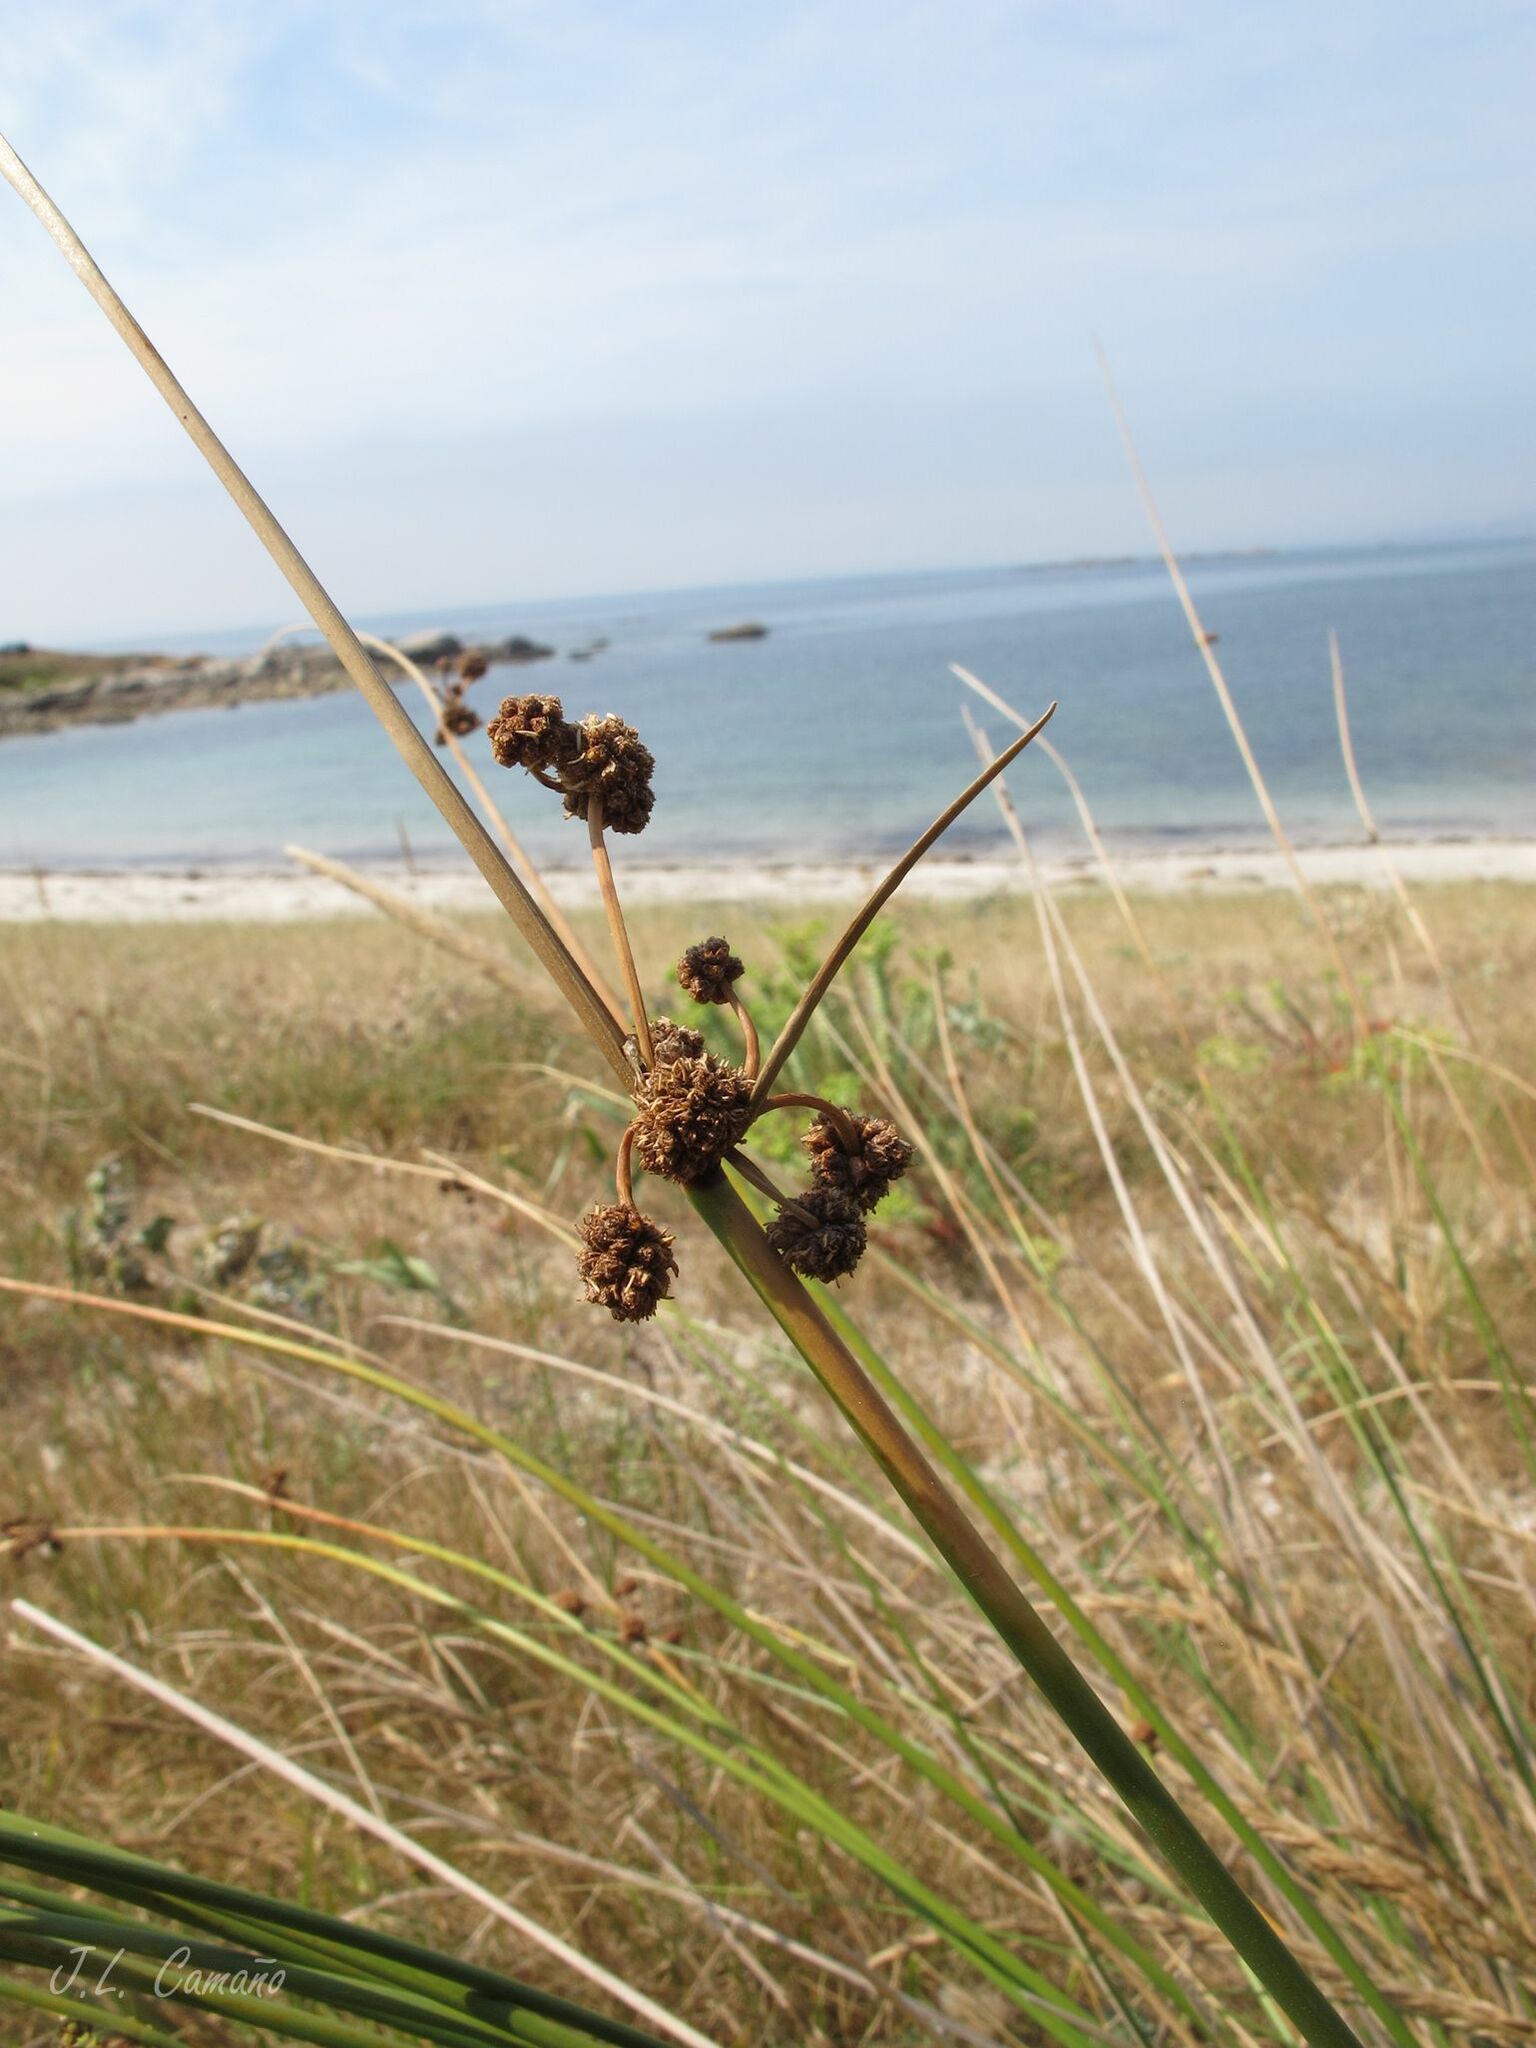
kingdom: Plantae
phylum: Tracheophyta
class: Liliopsida
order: Poales
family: Cyperaceae
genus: Scirpoides
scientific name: Scirpoides holoschoenus
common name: Round-headed club-rush
